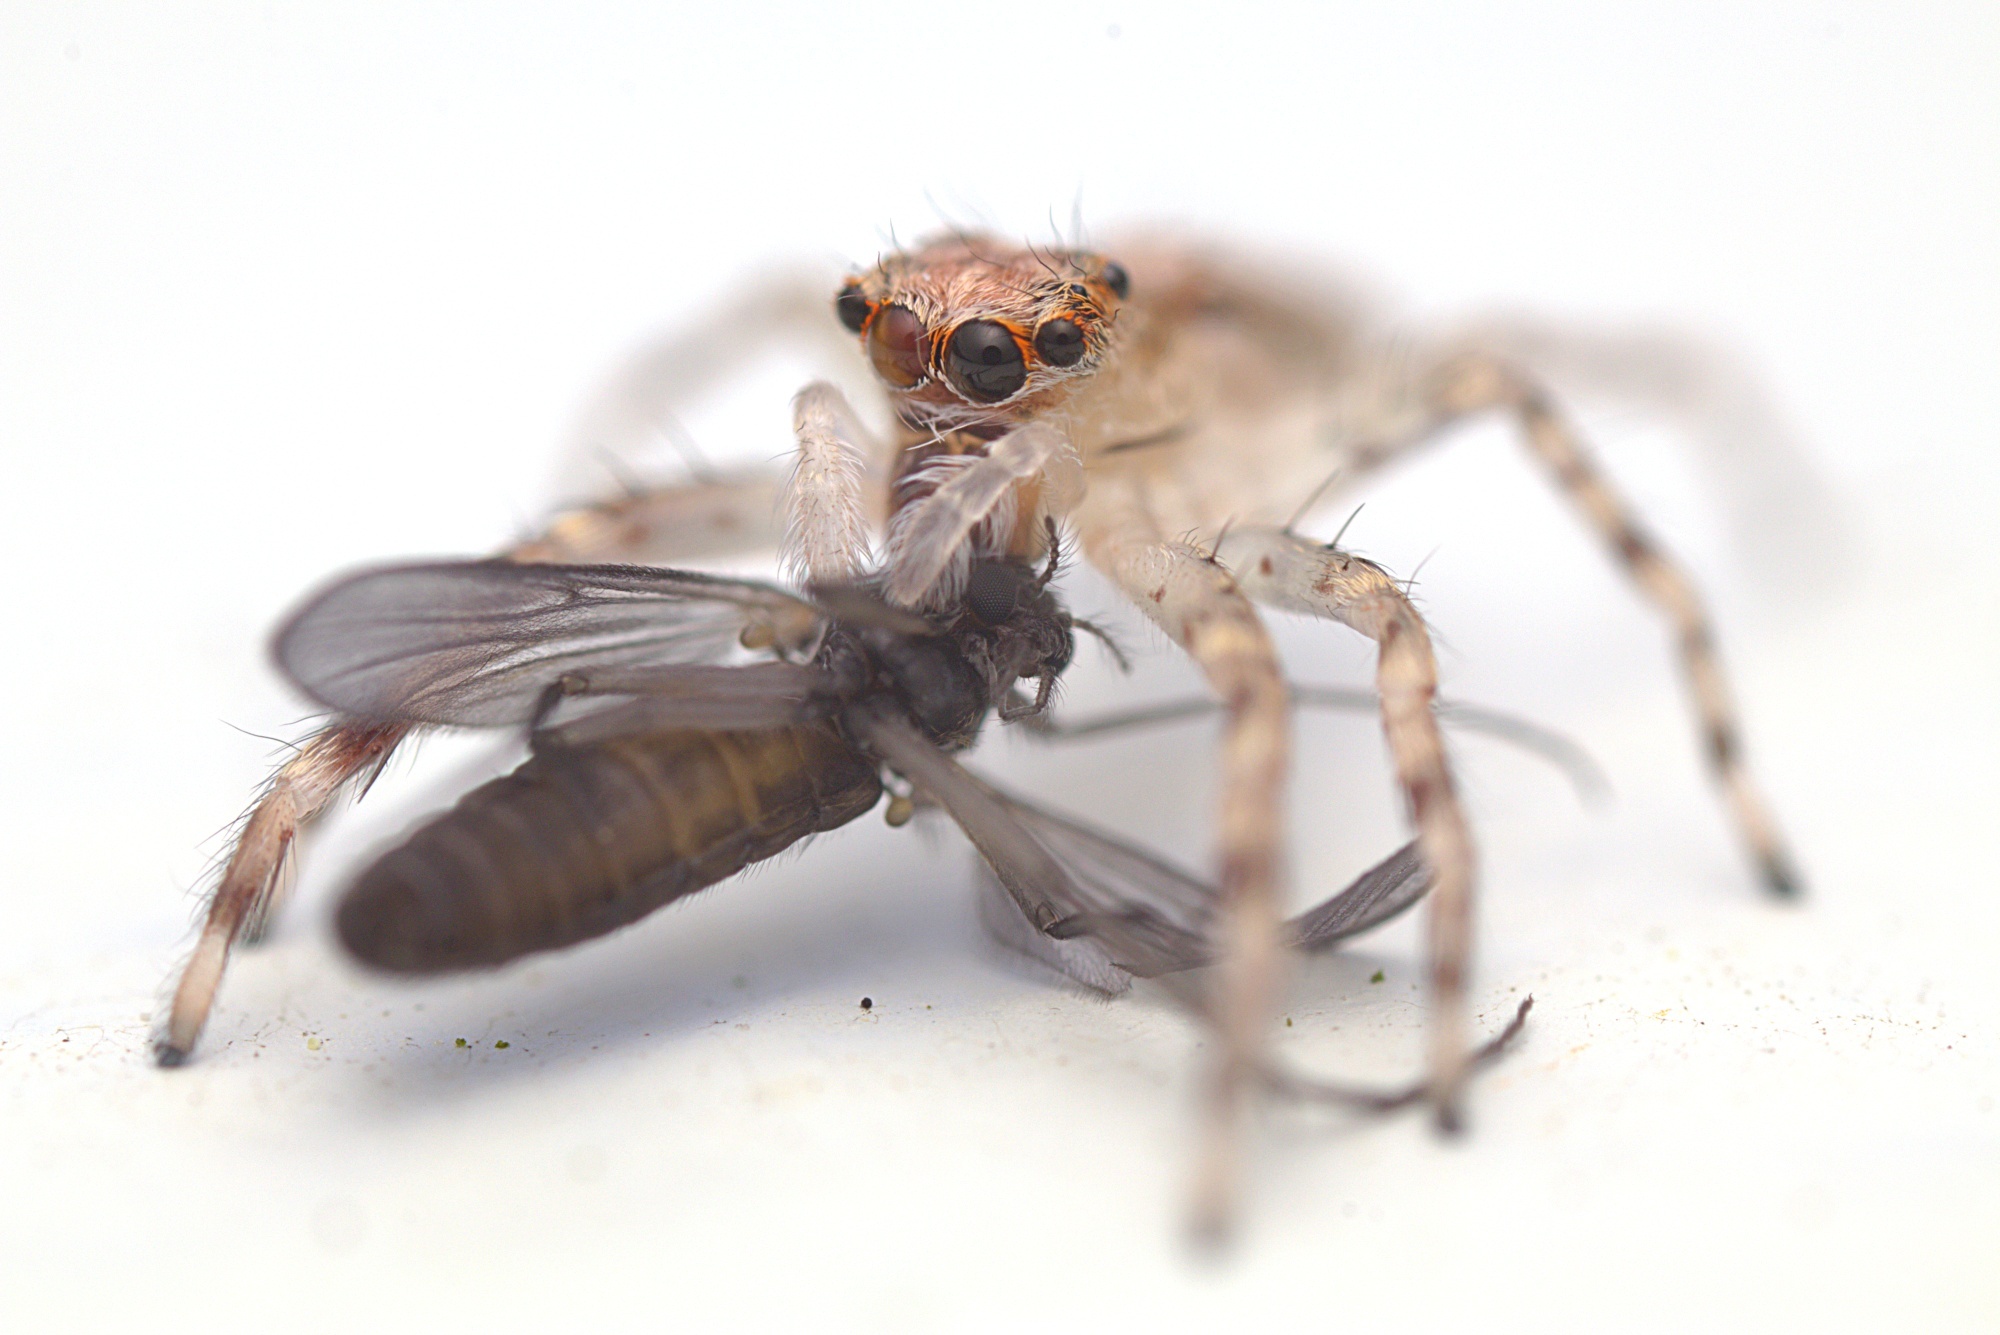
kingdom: Animalia
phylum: Arthropoda
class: Arachnida
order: Araneae
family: Salticidae
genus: Helpis
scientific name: Helpis minitabunda
